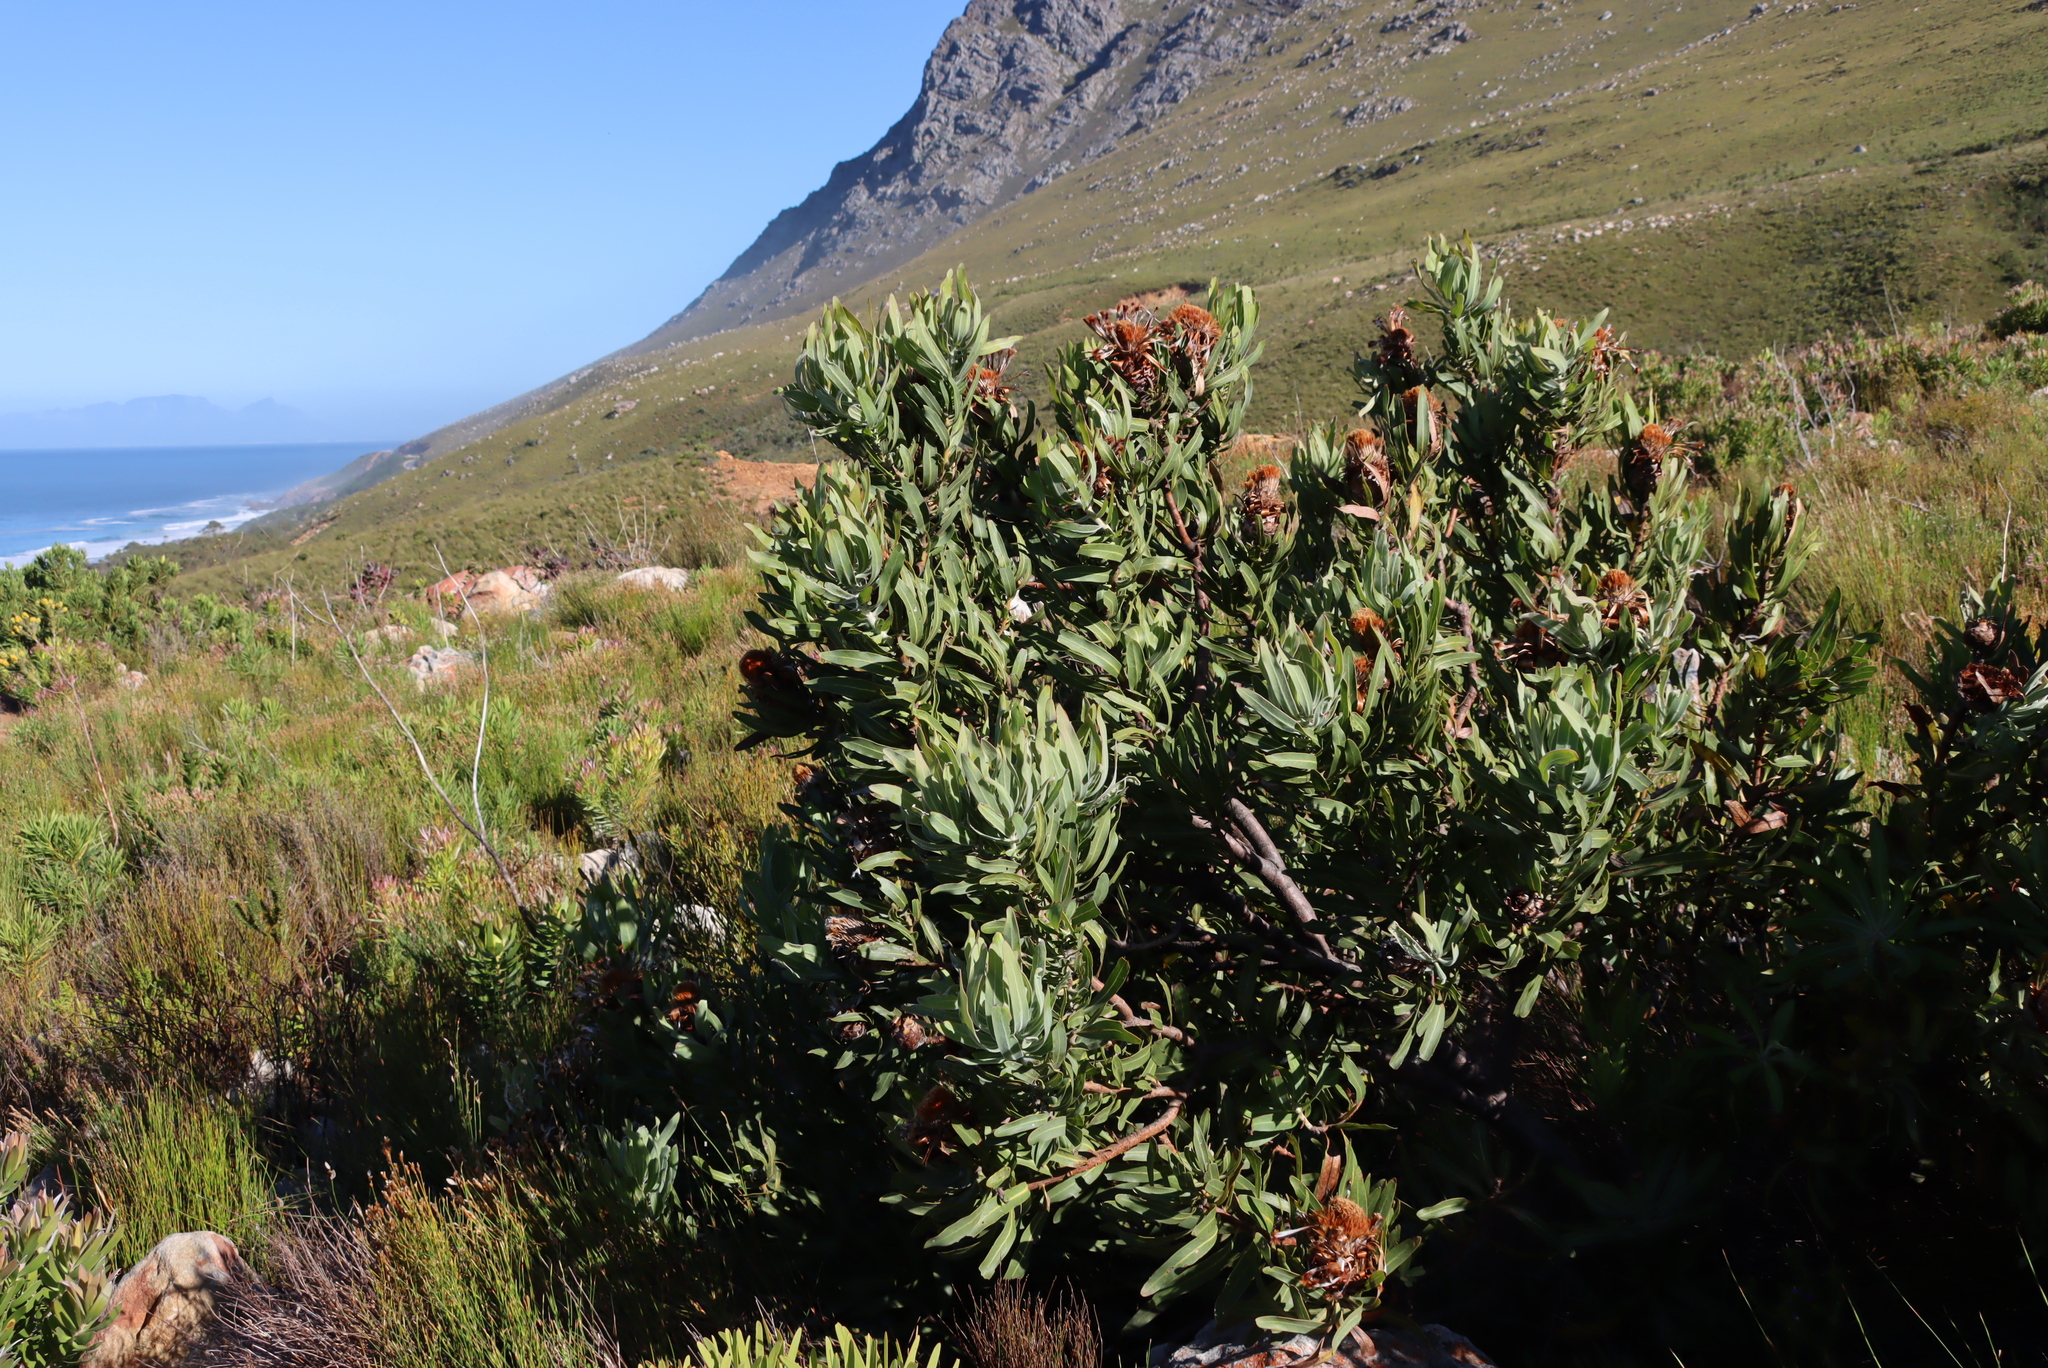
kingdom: Plantae
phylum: Tracheophyta
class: Magnoliopsida
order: Proteales
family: Proteaceae
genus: Protea
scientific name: Protea laurifolia
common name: Grey-leaf sugarbsh
